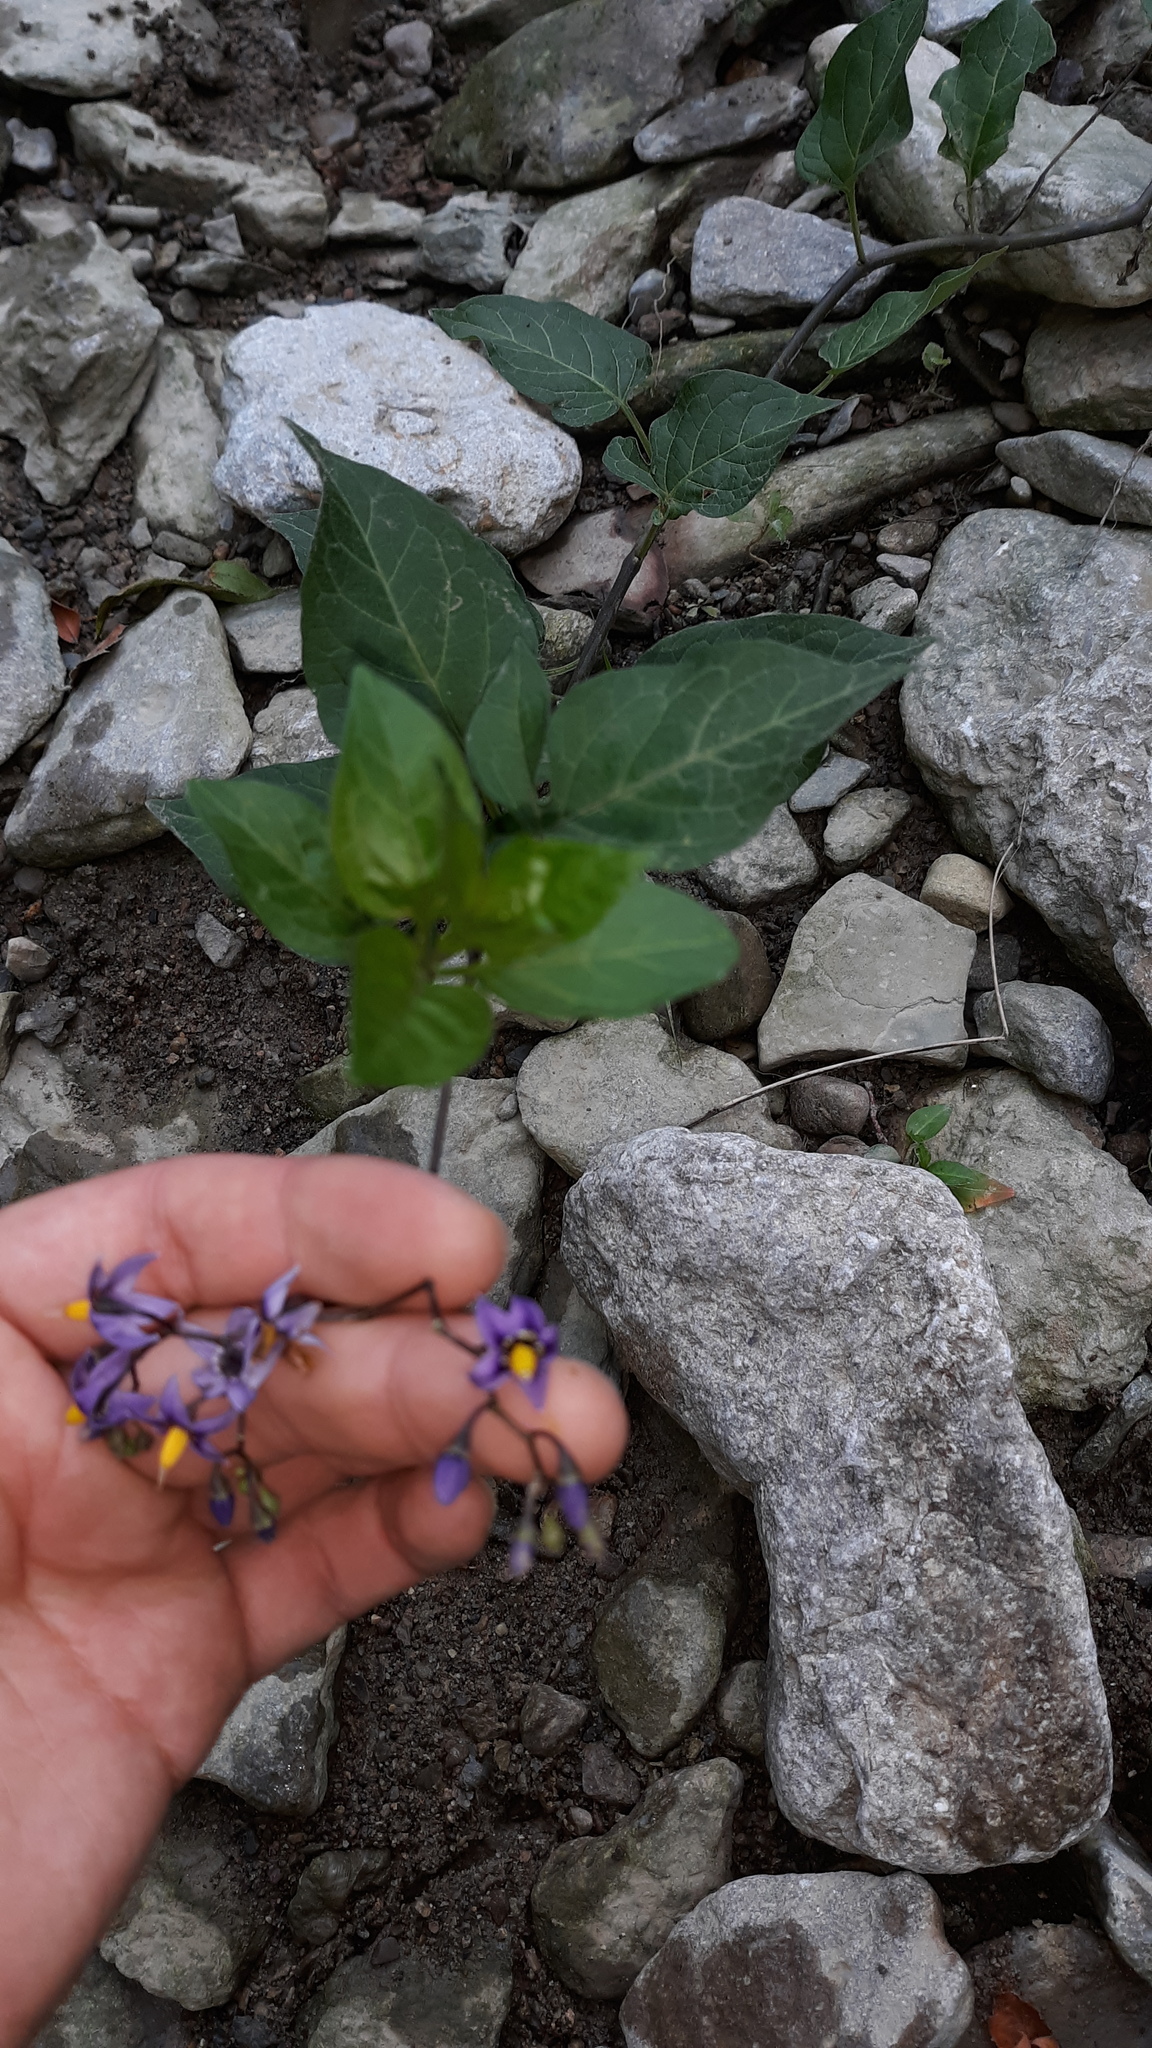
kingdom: Plantae
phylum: Tracheophyta
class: Magnoliopsida
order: Solanales
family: Solanaceae
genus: Solanum
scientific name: Solanum dulcamara
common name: Climbing nightshade
